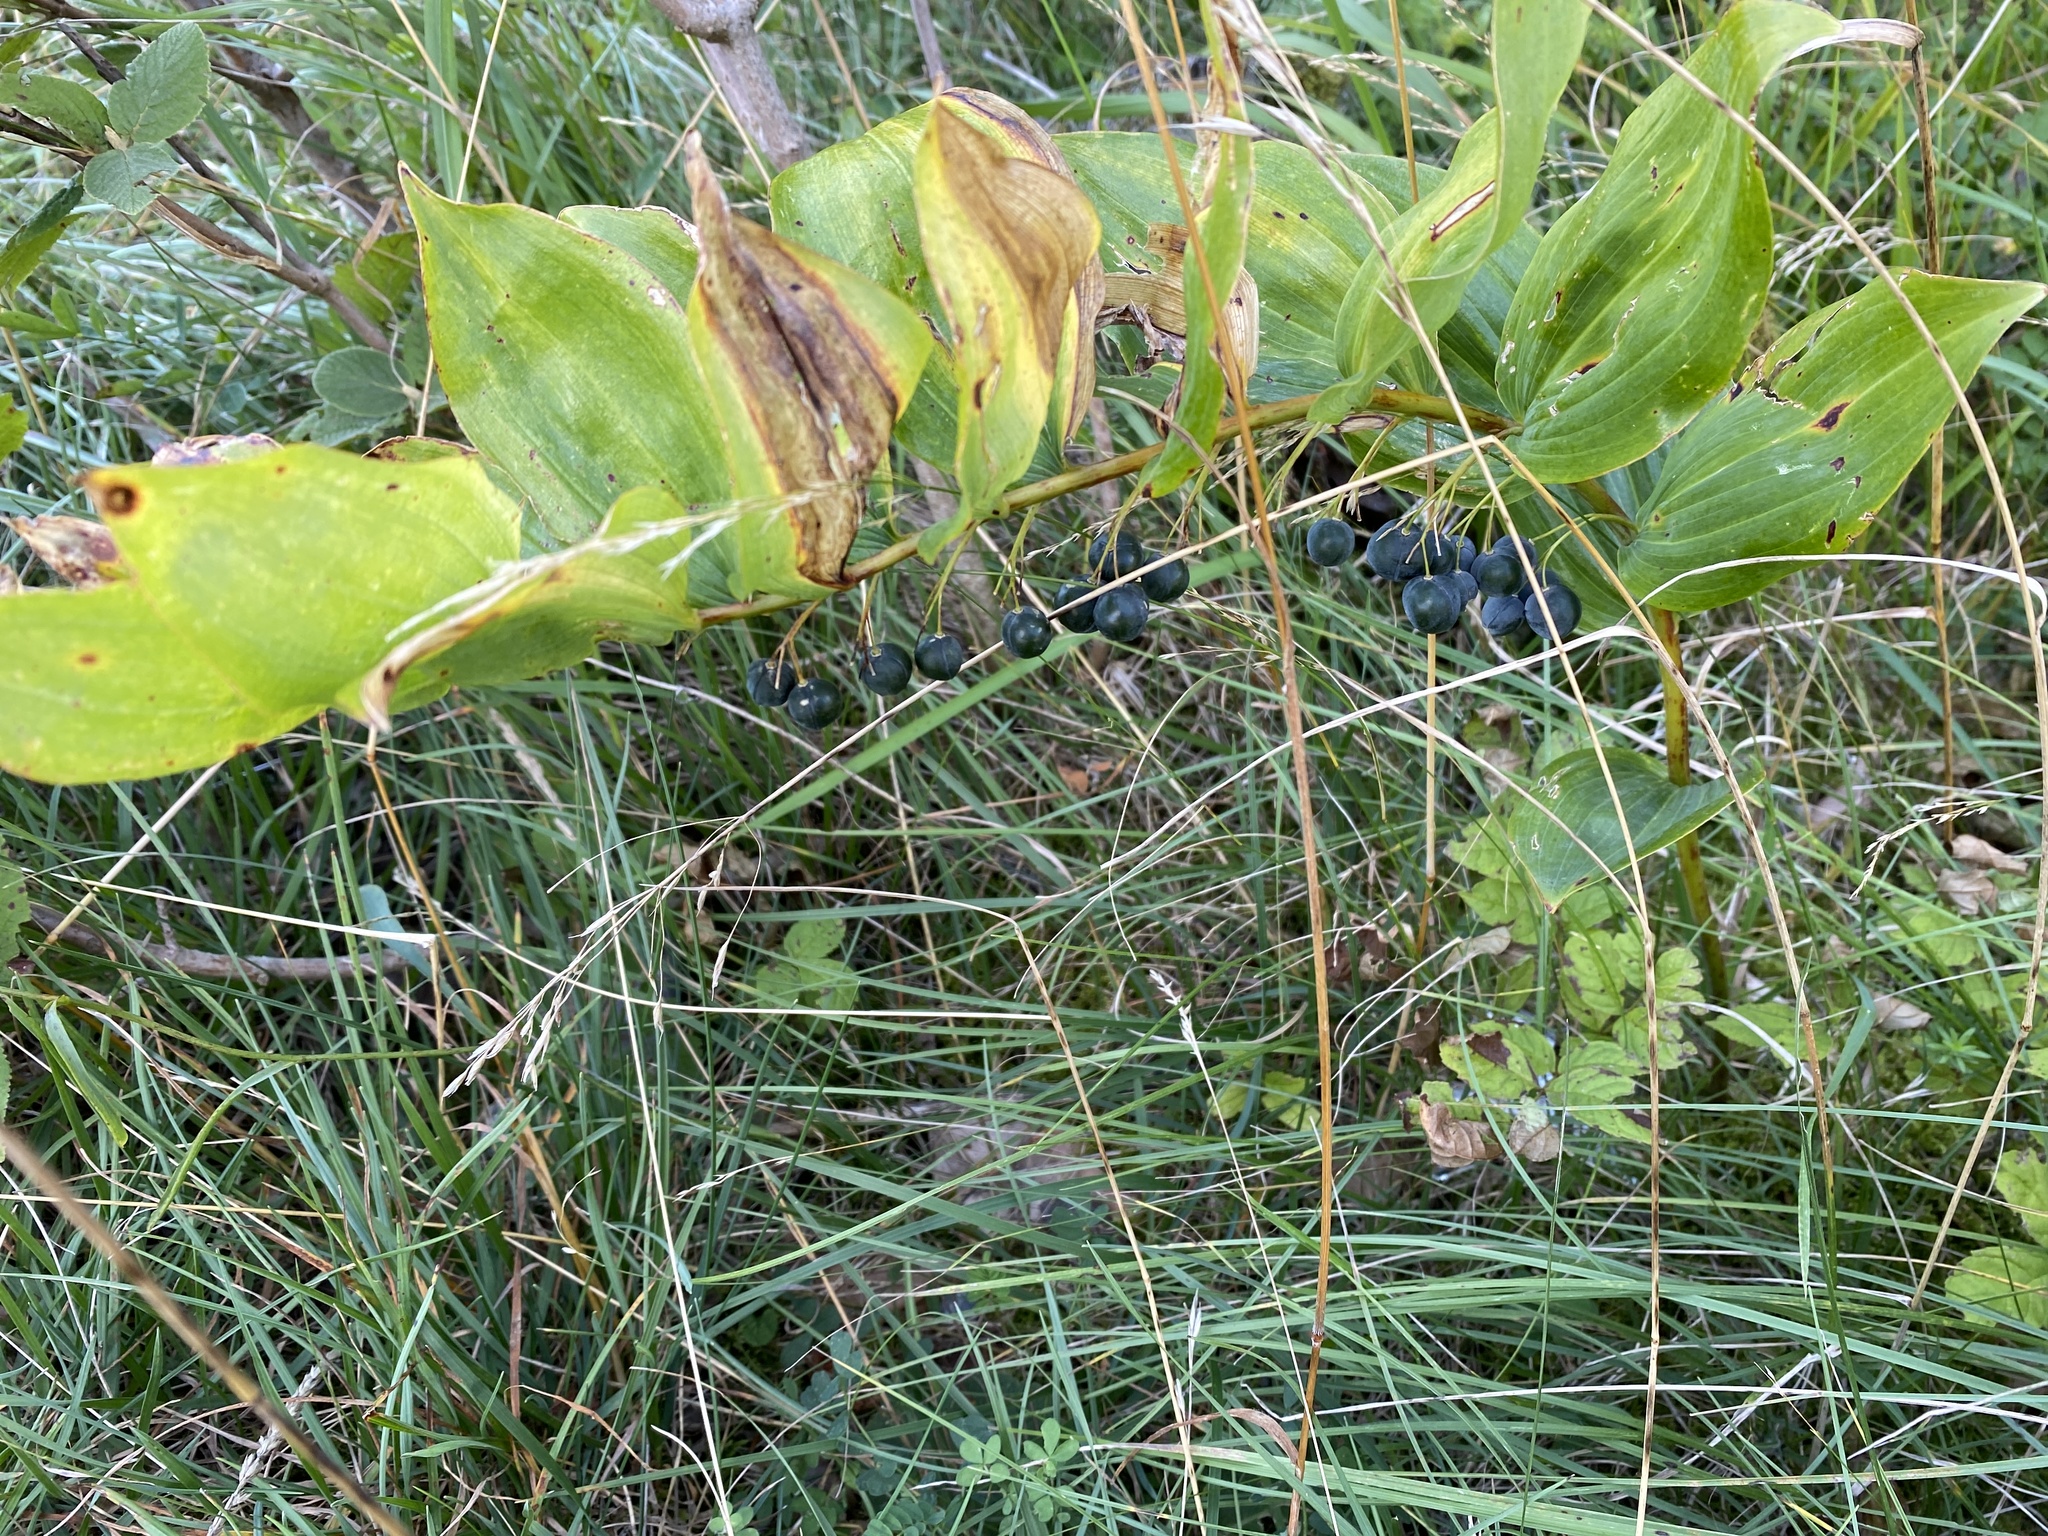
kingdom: Plantae
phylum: Tracheophyta
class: Liliopsida
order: Asparagales
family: Asparagaceae
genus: Polygonatum
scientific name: Polygonatum multiflorum
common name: Solomon's-seal
